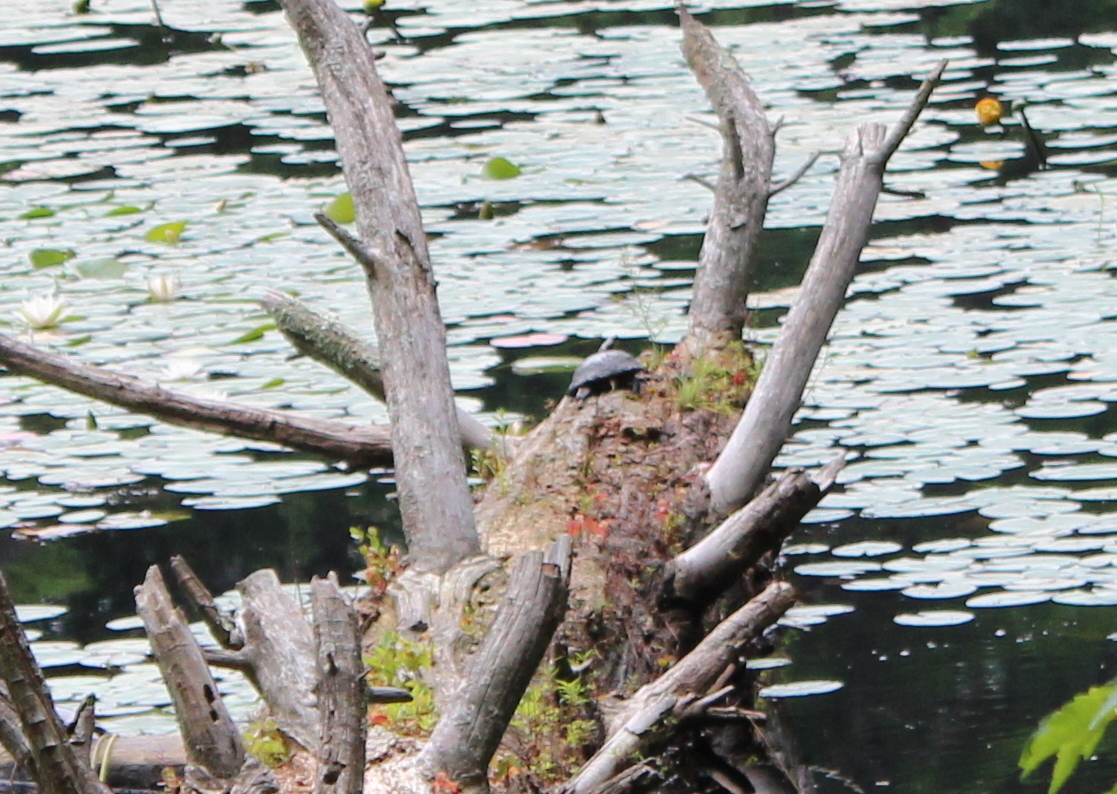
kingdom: Animalia
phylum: Chordata
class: Testudines
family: Emydidae
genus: Chrysemys
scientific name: Chrysemys picta
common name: Painted turtle
